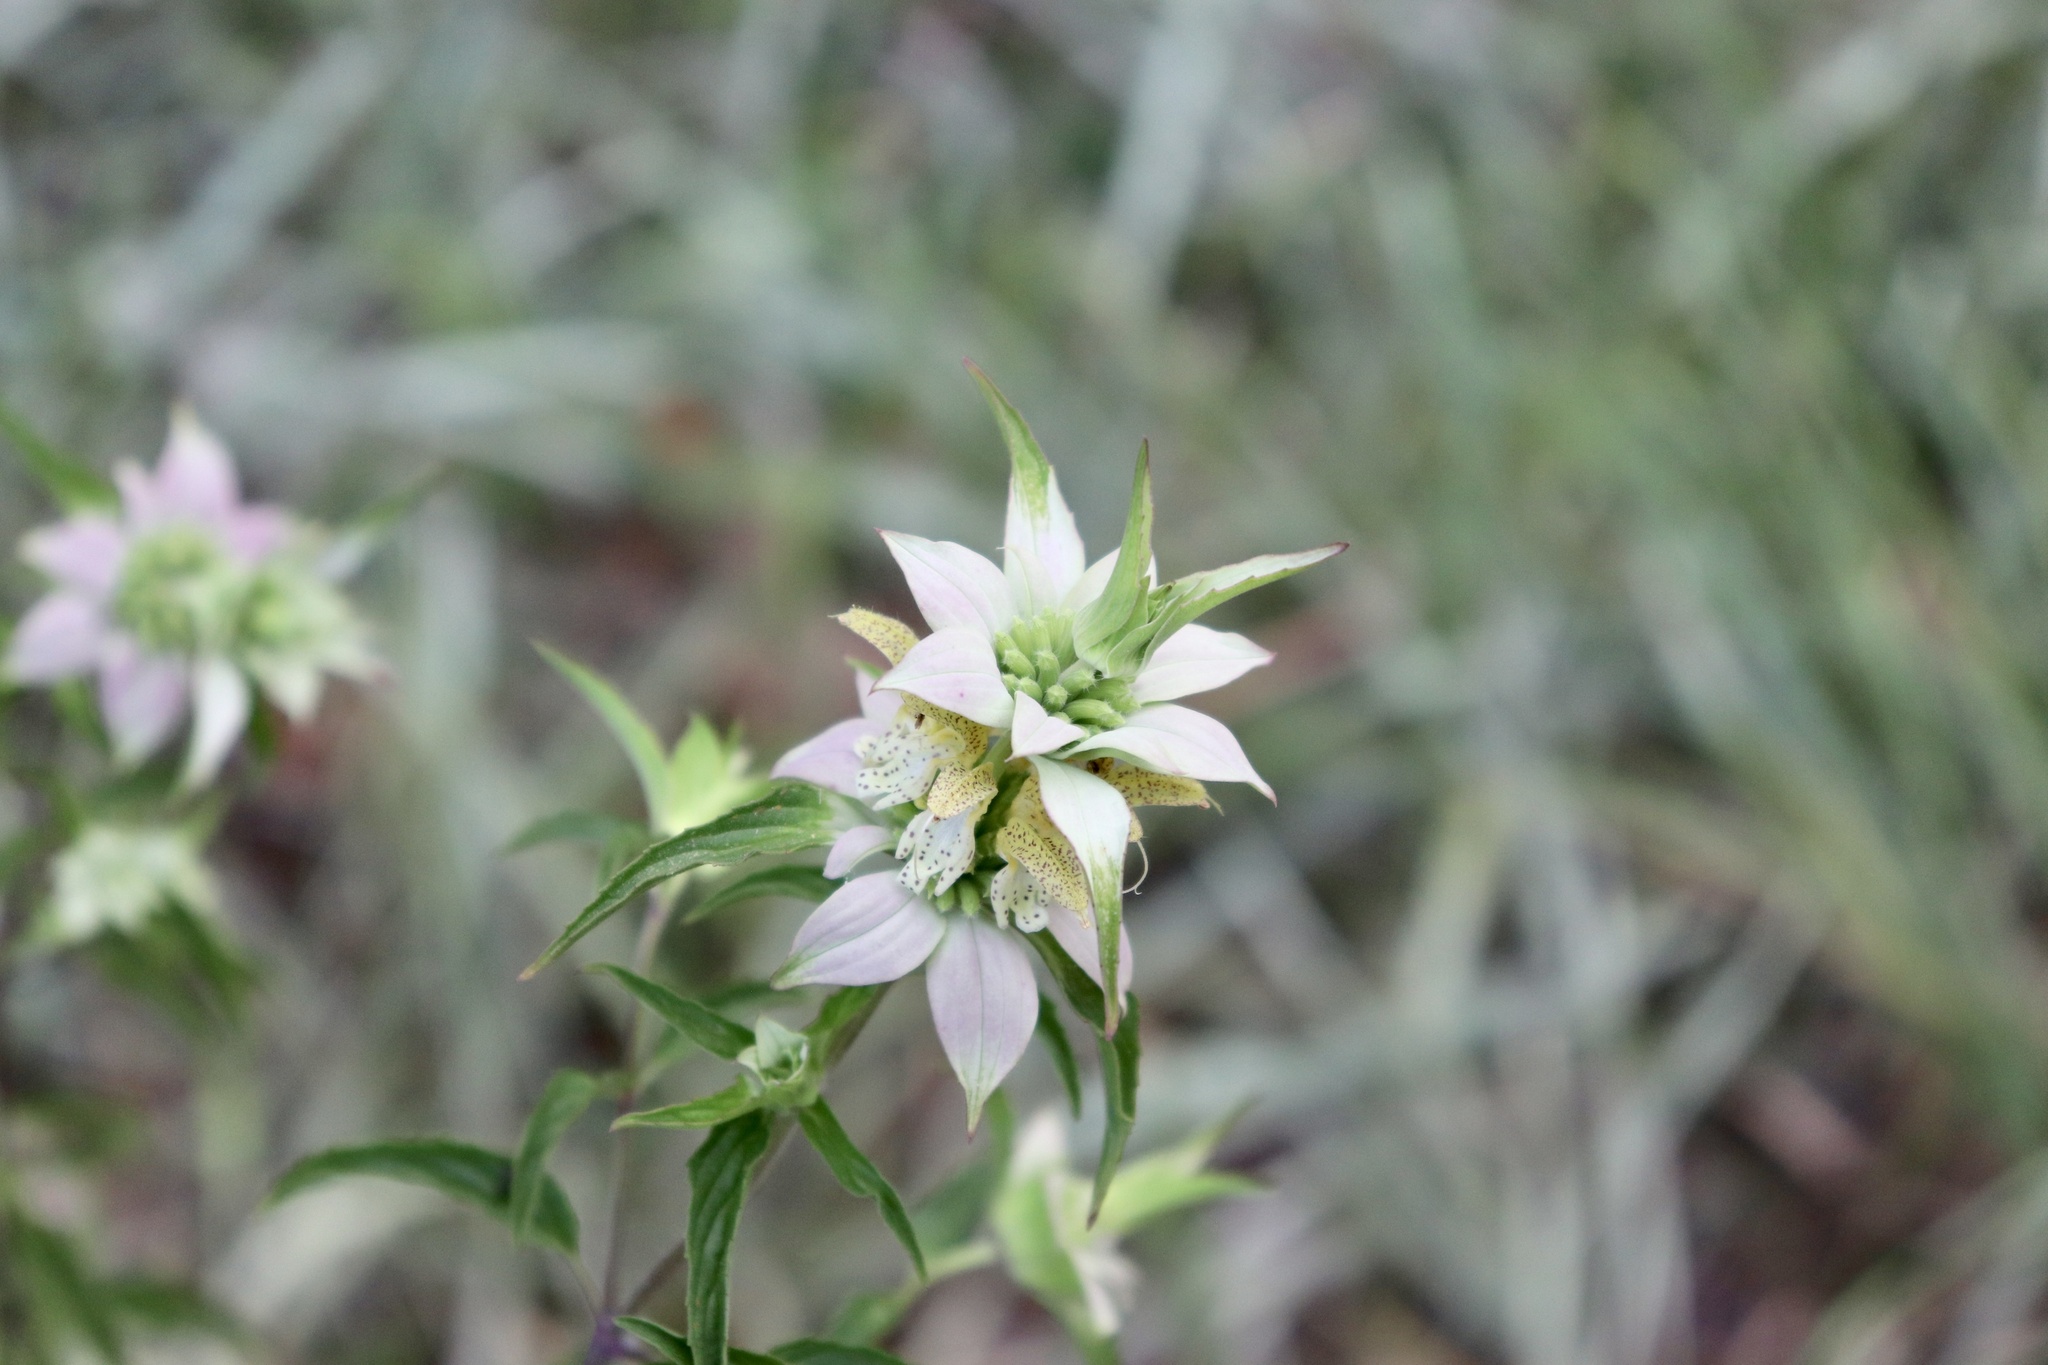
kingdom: Plantae
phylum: Tracheophyta
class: Magnoliopsida
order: Lamiales
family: Lamiaceae
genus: Monarda
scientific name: Monarda punctata
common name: Dotted monarda
